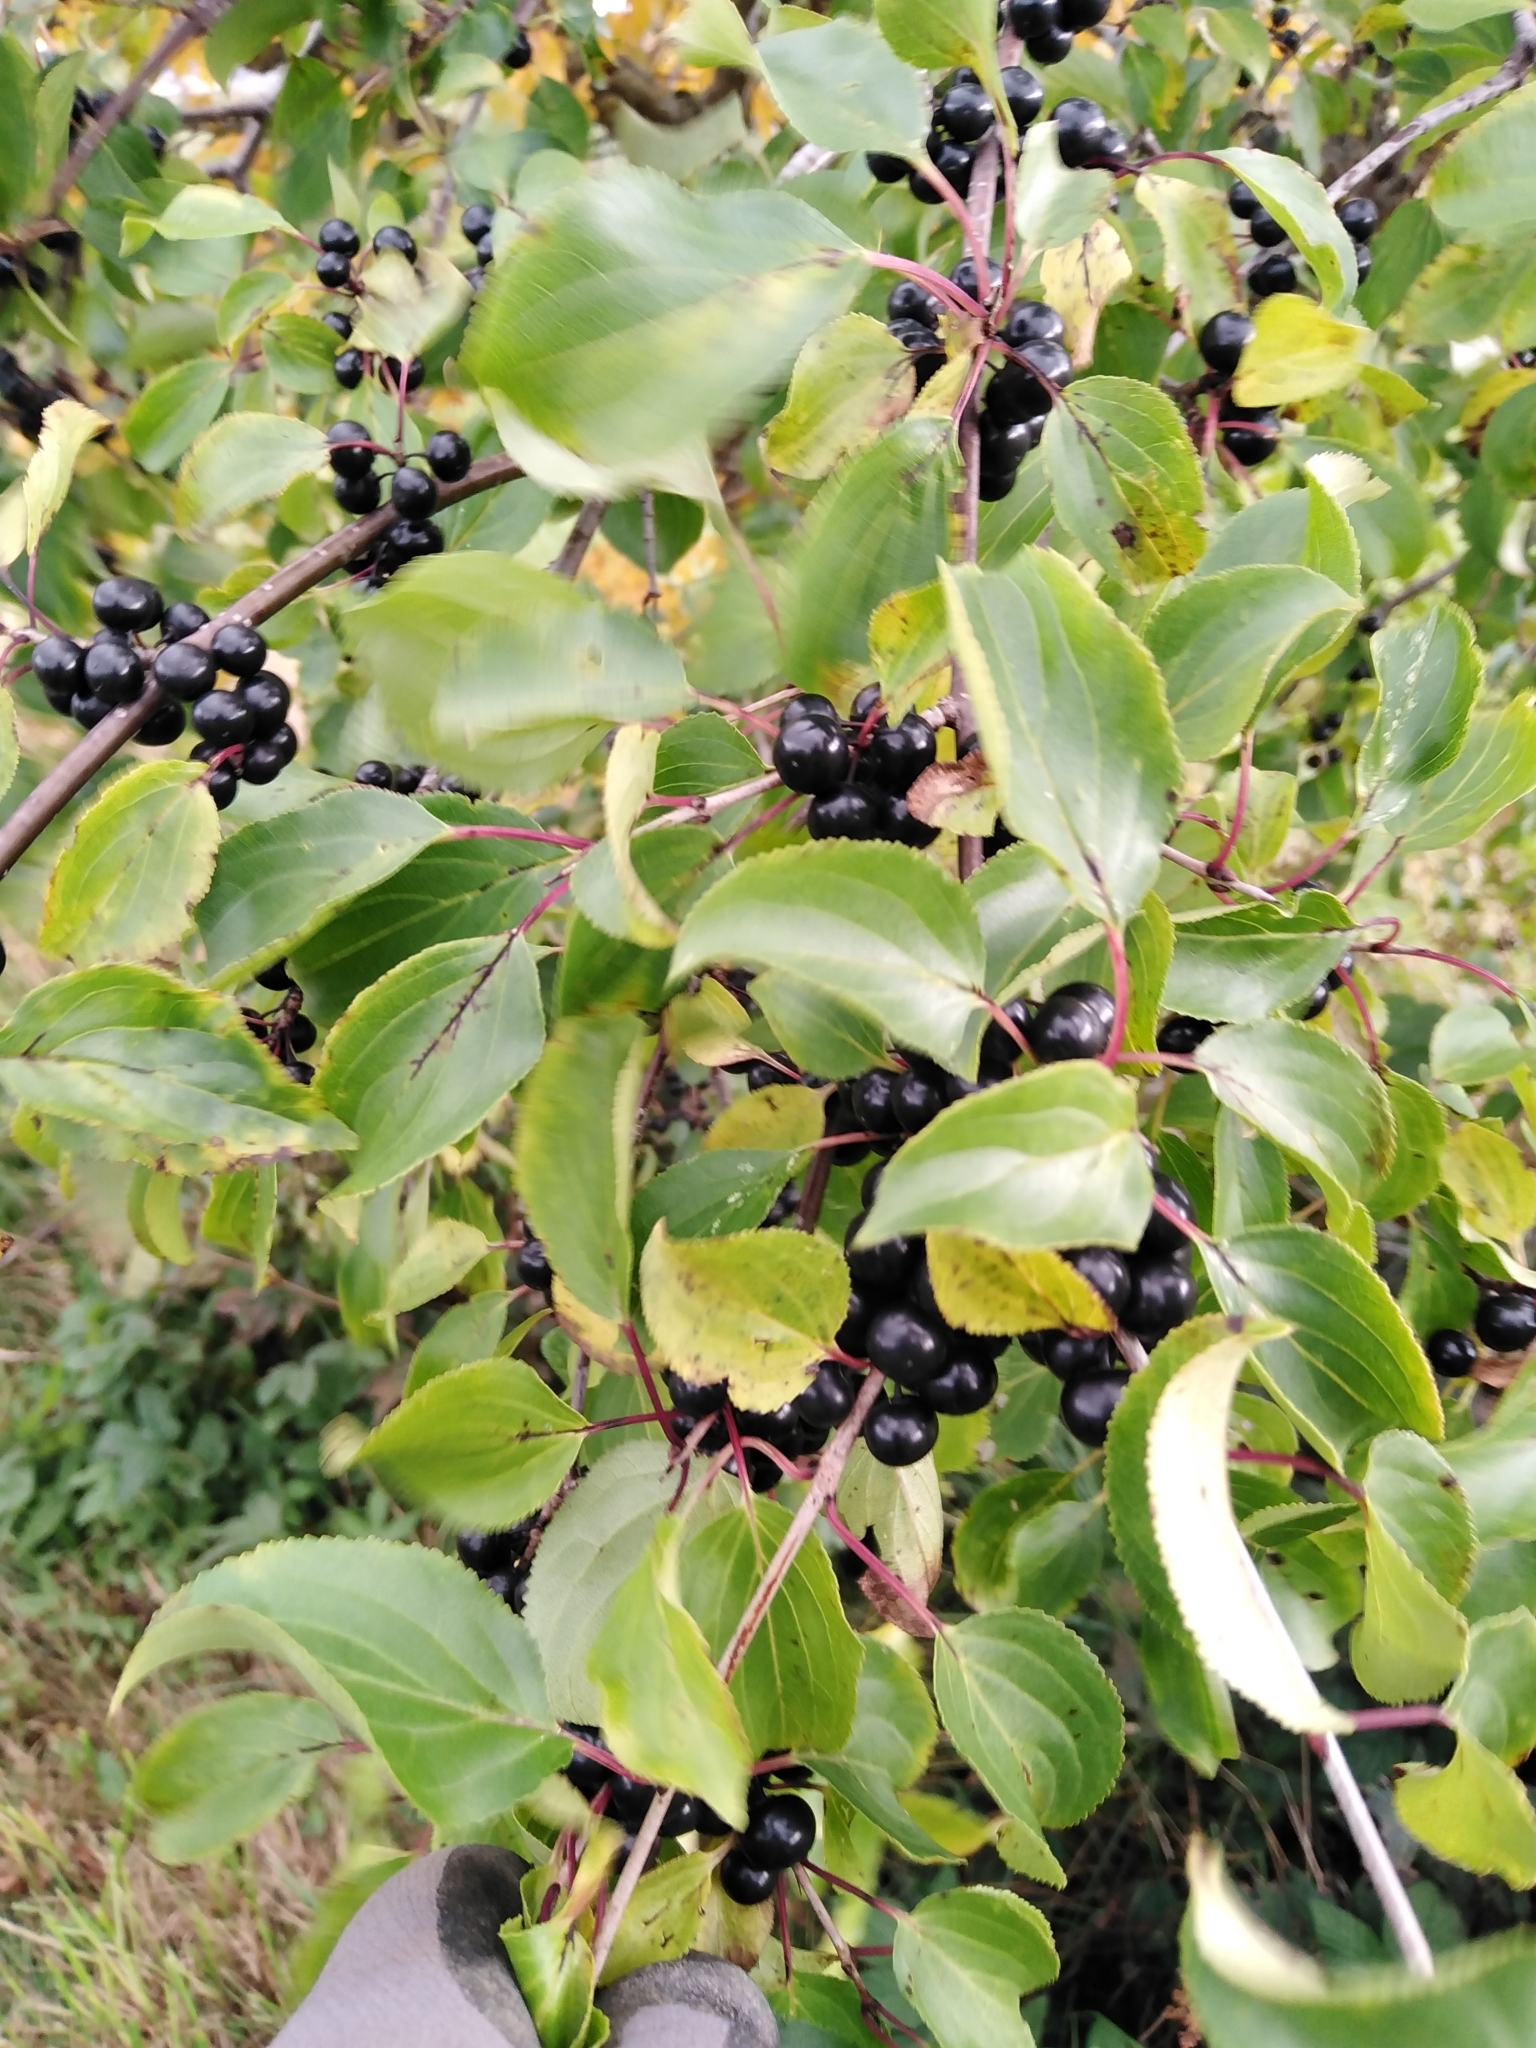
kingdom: Plantae
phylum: Tracheophyta
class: Magnoliopsida
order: Rosales
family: Rhamnaceae
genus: Rhamnus
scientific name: Rhamnus cathartica
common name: Common buckthorn
